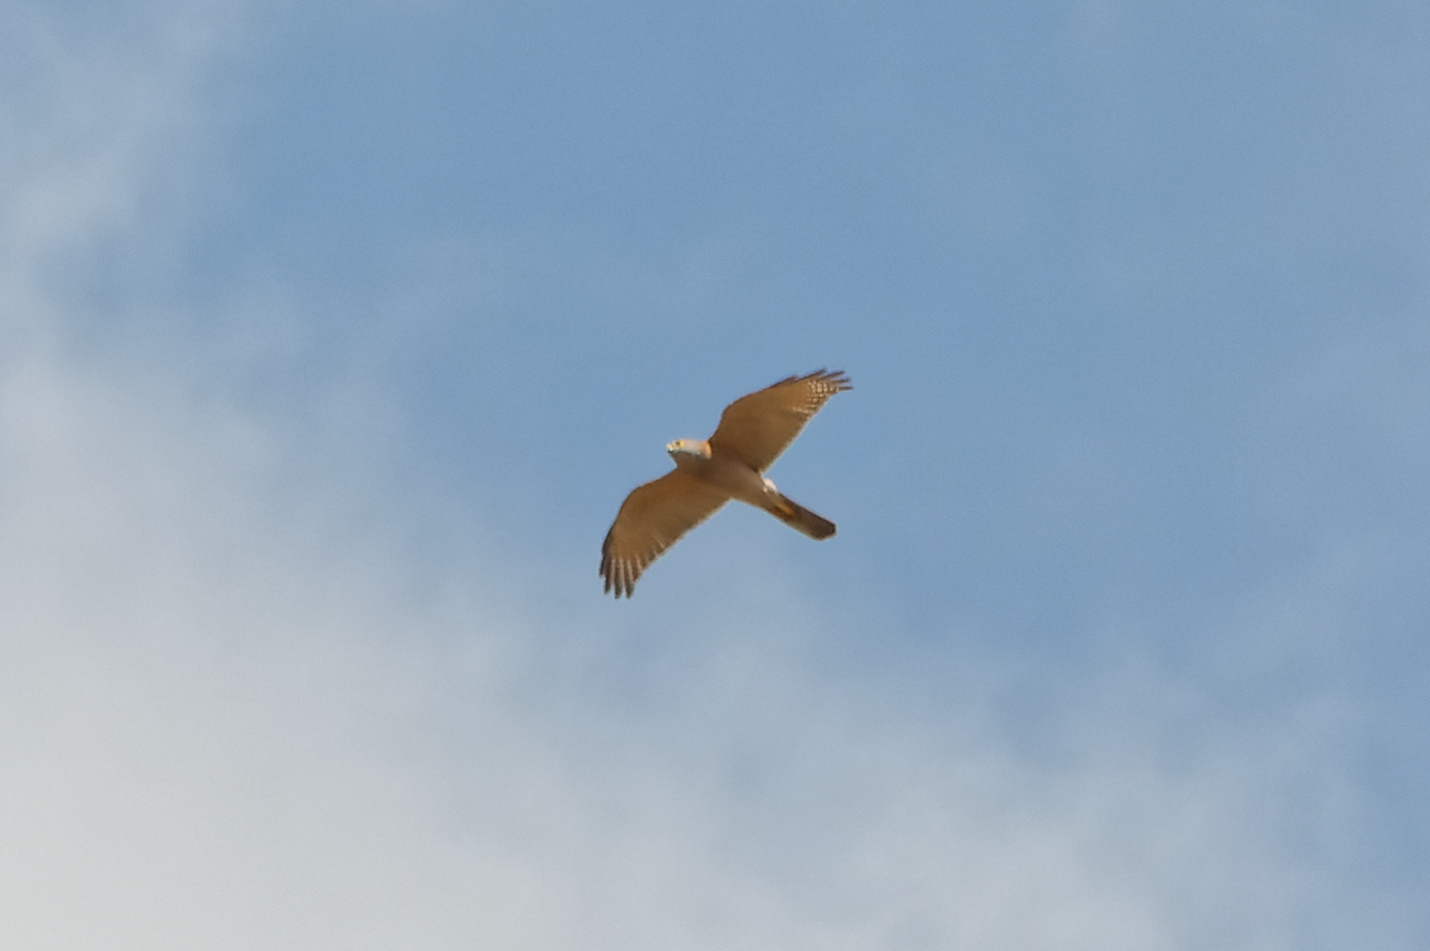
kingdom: Animalia
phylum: Chordata
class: Aves
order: Accipitriformes
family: Accipitridae
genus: Accipiter
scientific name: Accipiter fasciatus
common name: Brown goshawk
